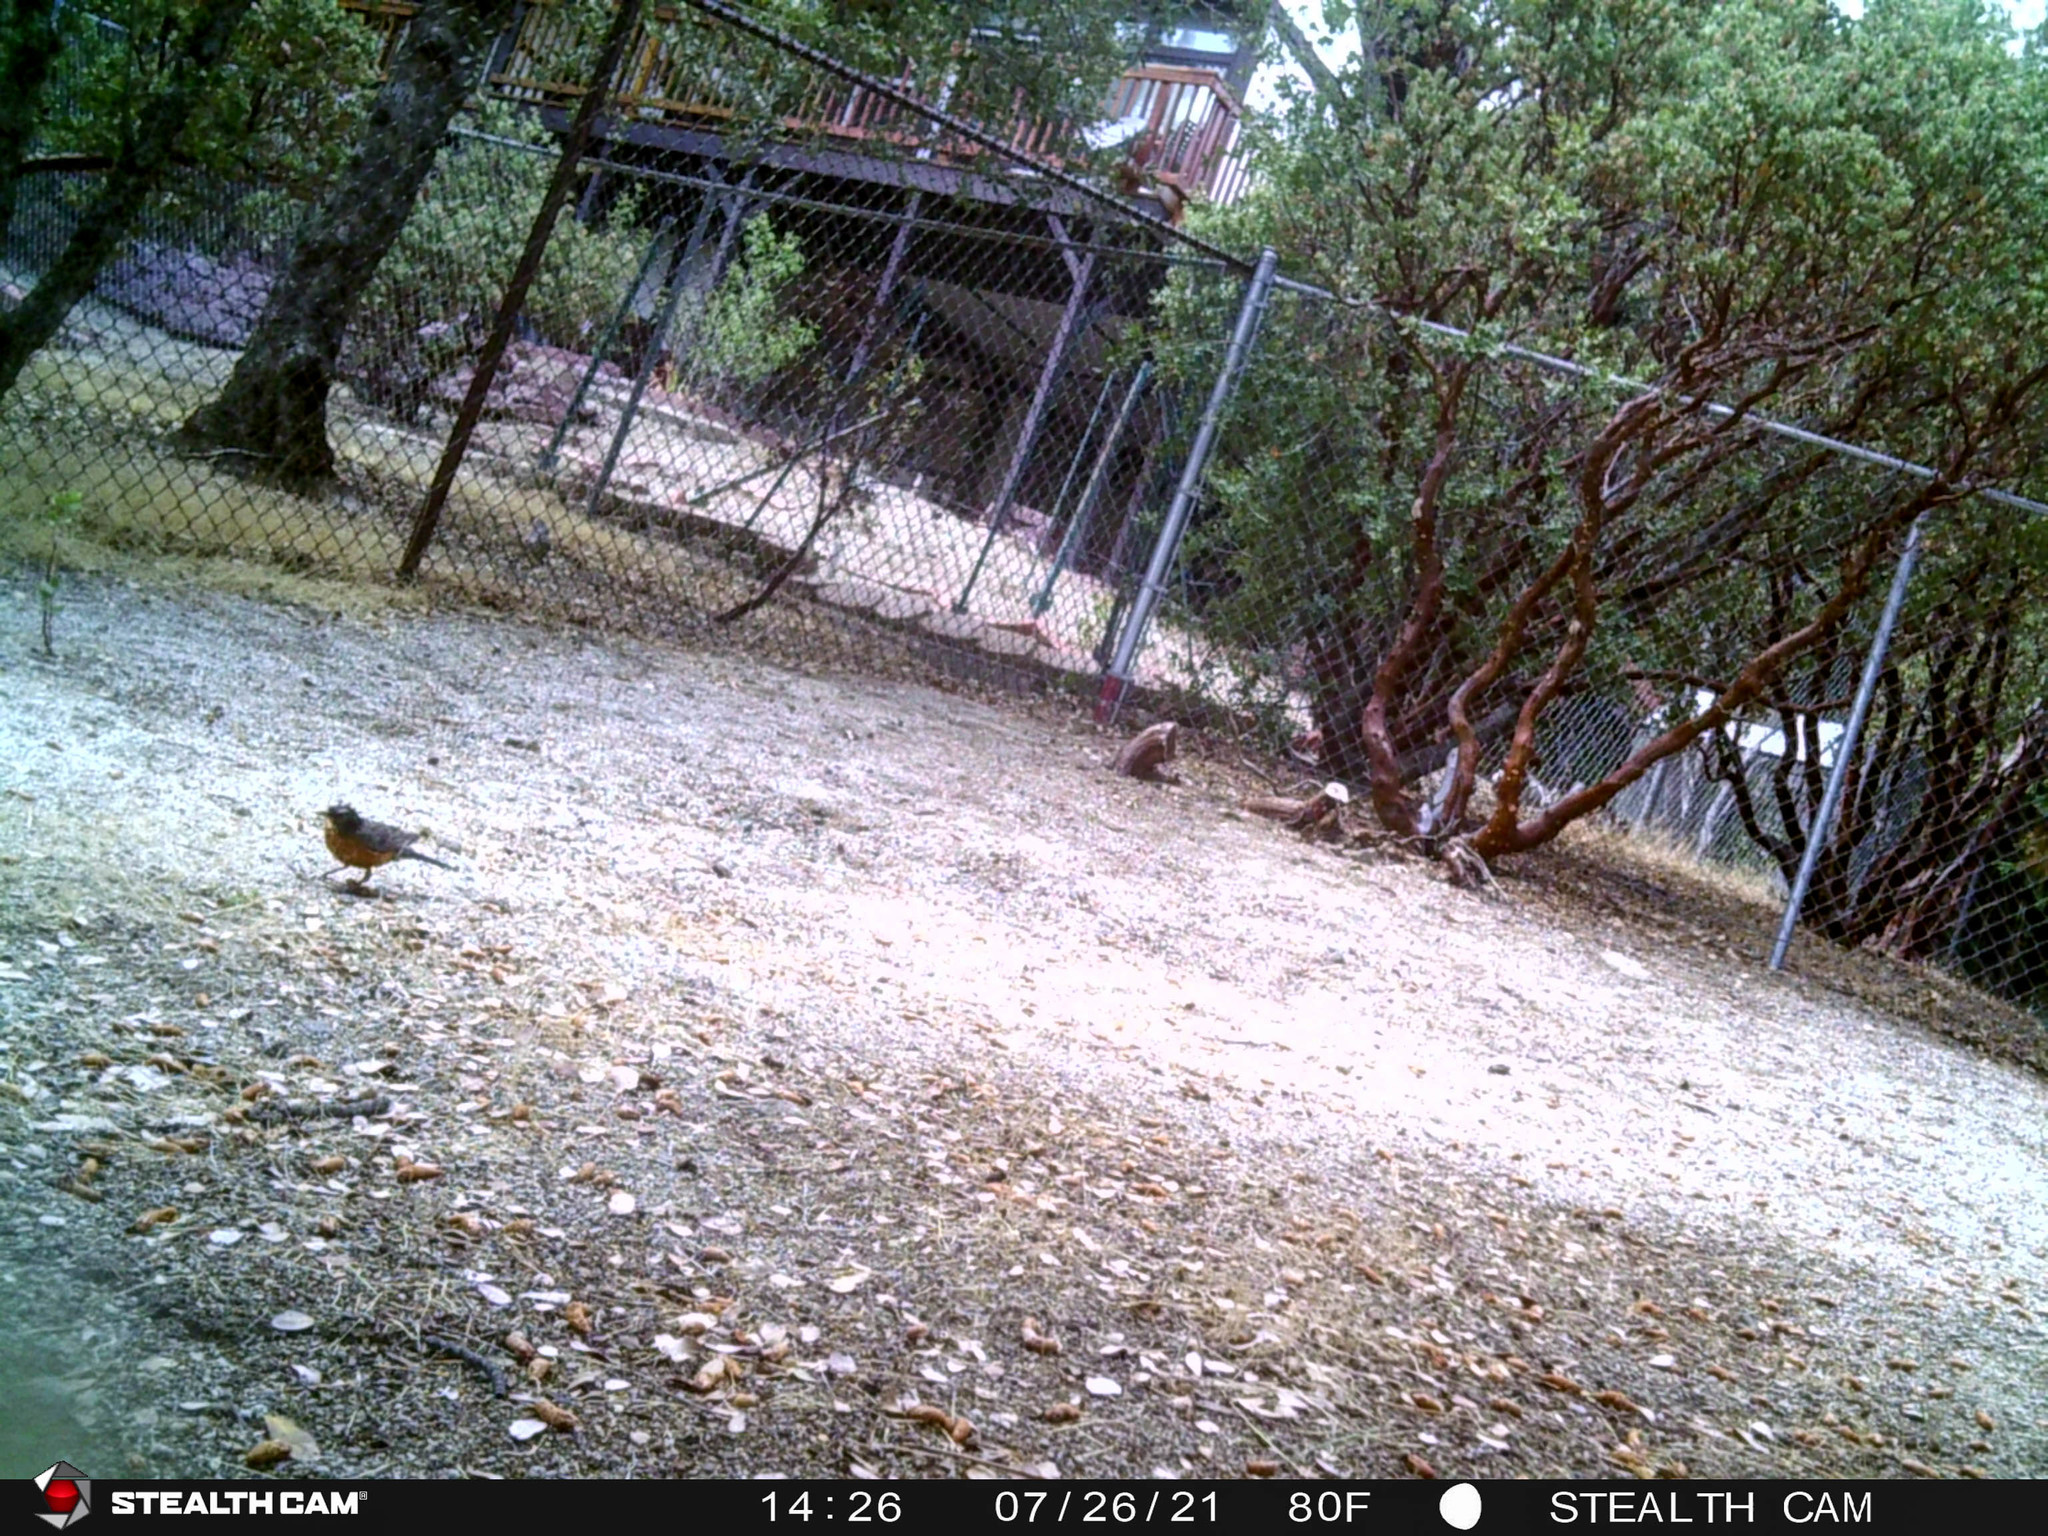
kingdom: Animalia
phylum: Chordata
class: Aves
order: Passeriformes
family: Turdidae
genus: Turdus
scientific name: Turdus migratorius
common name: American robin
